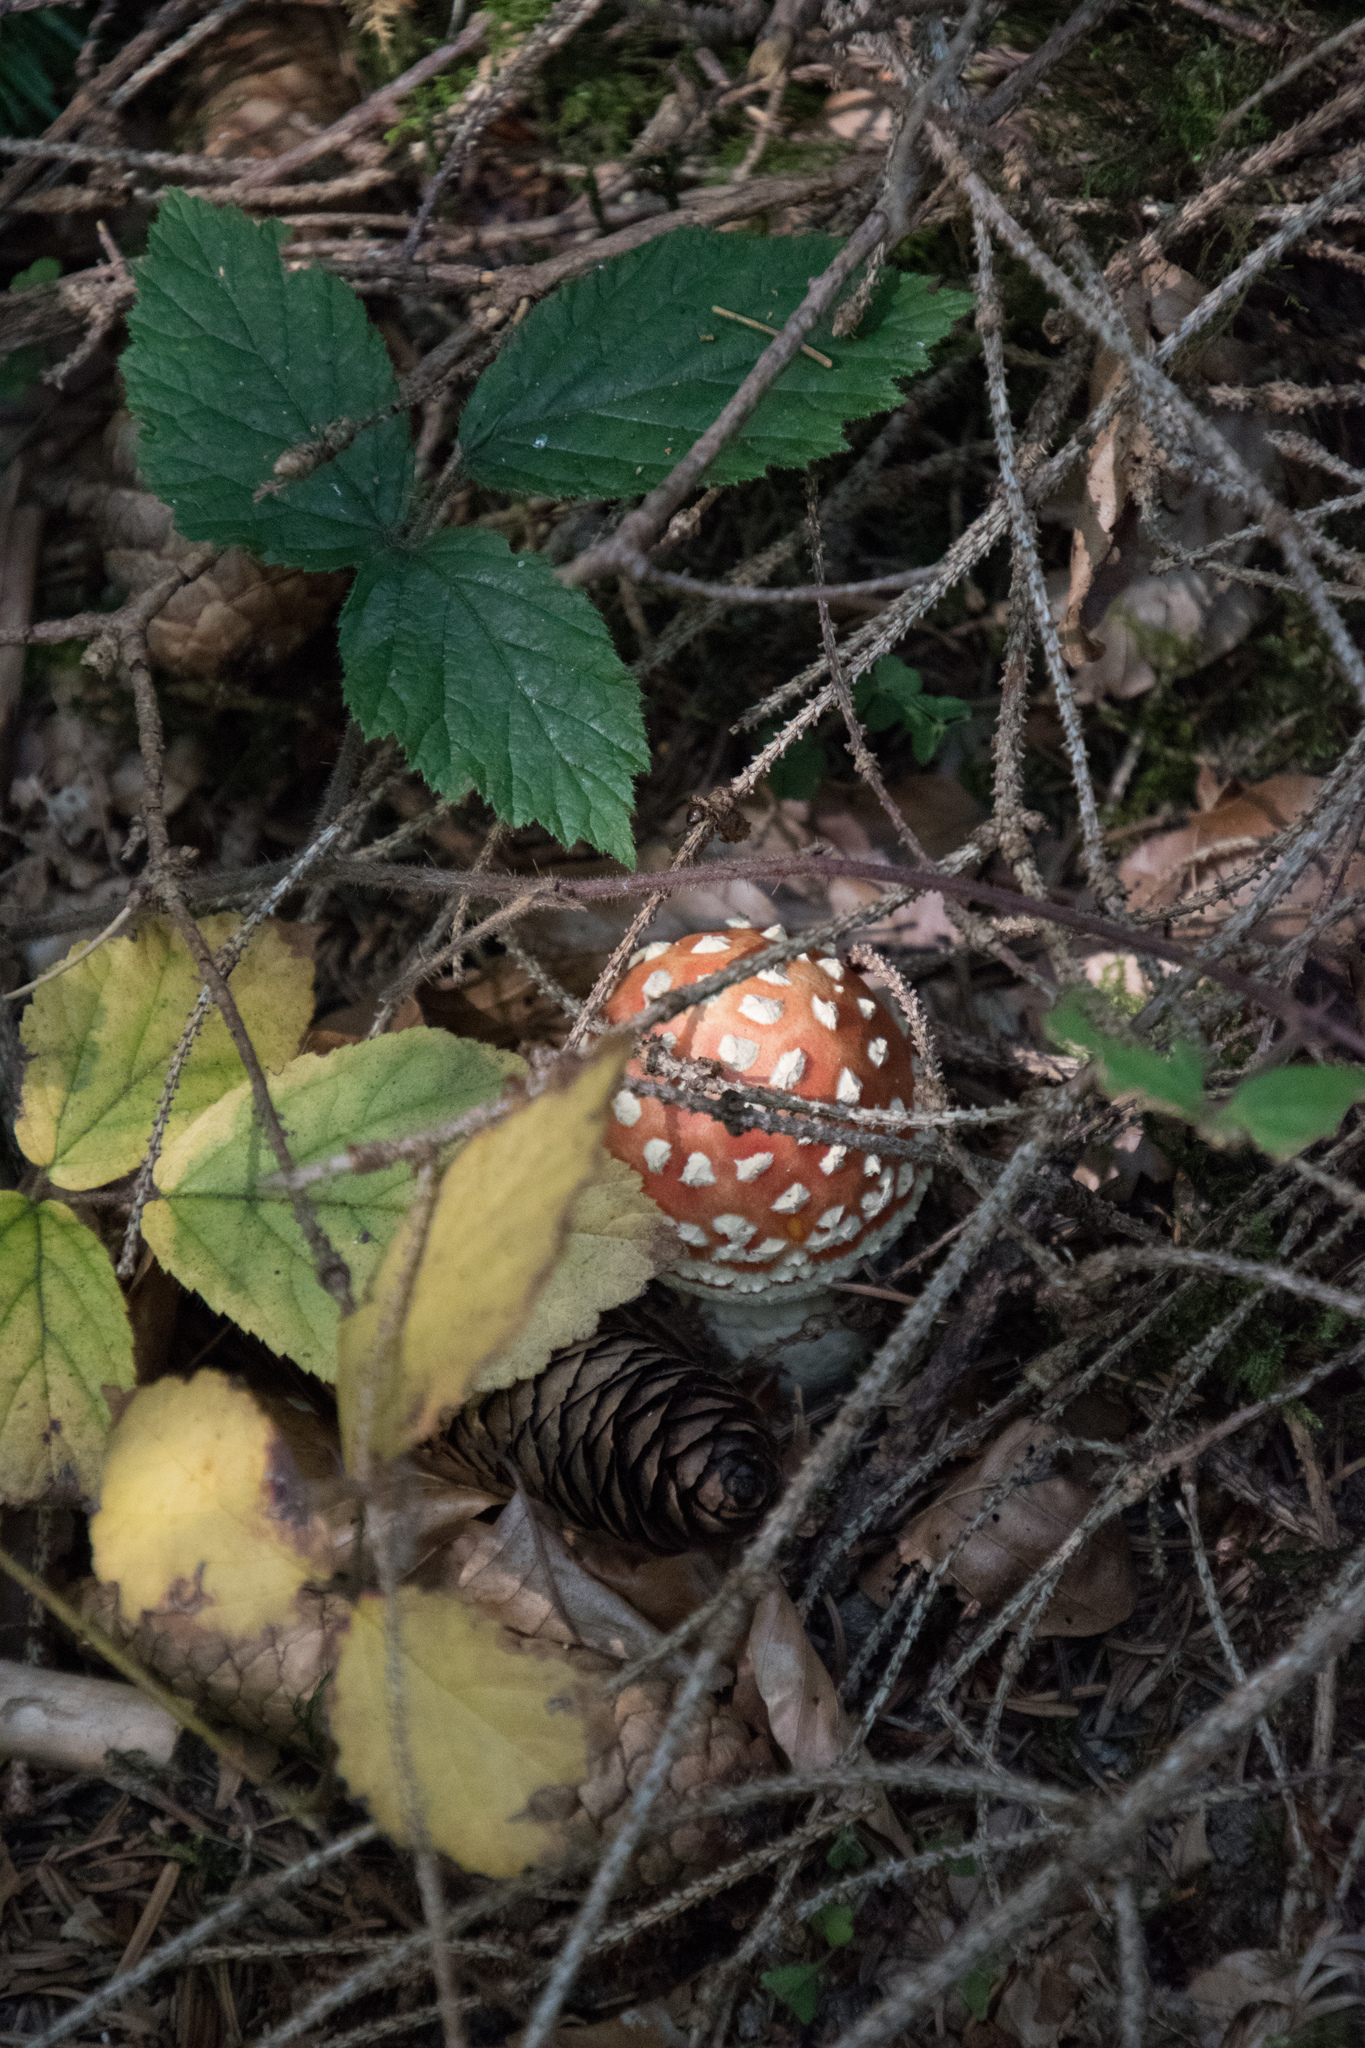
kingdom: Fungi
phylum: Basidiomycota
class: Agaricomycetes
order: Agaricales
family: Amanitaceae
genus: Amanita
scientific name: Amanita muscaria
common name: Fly agaric
